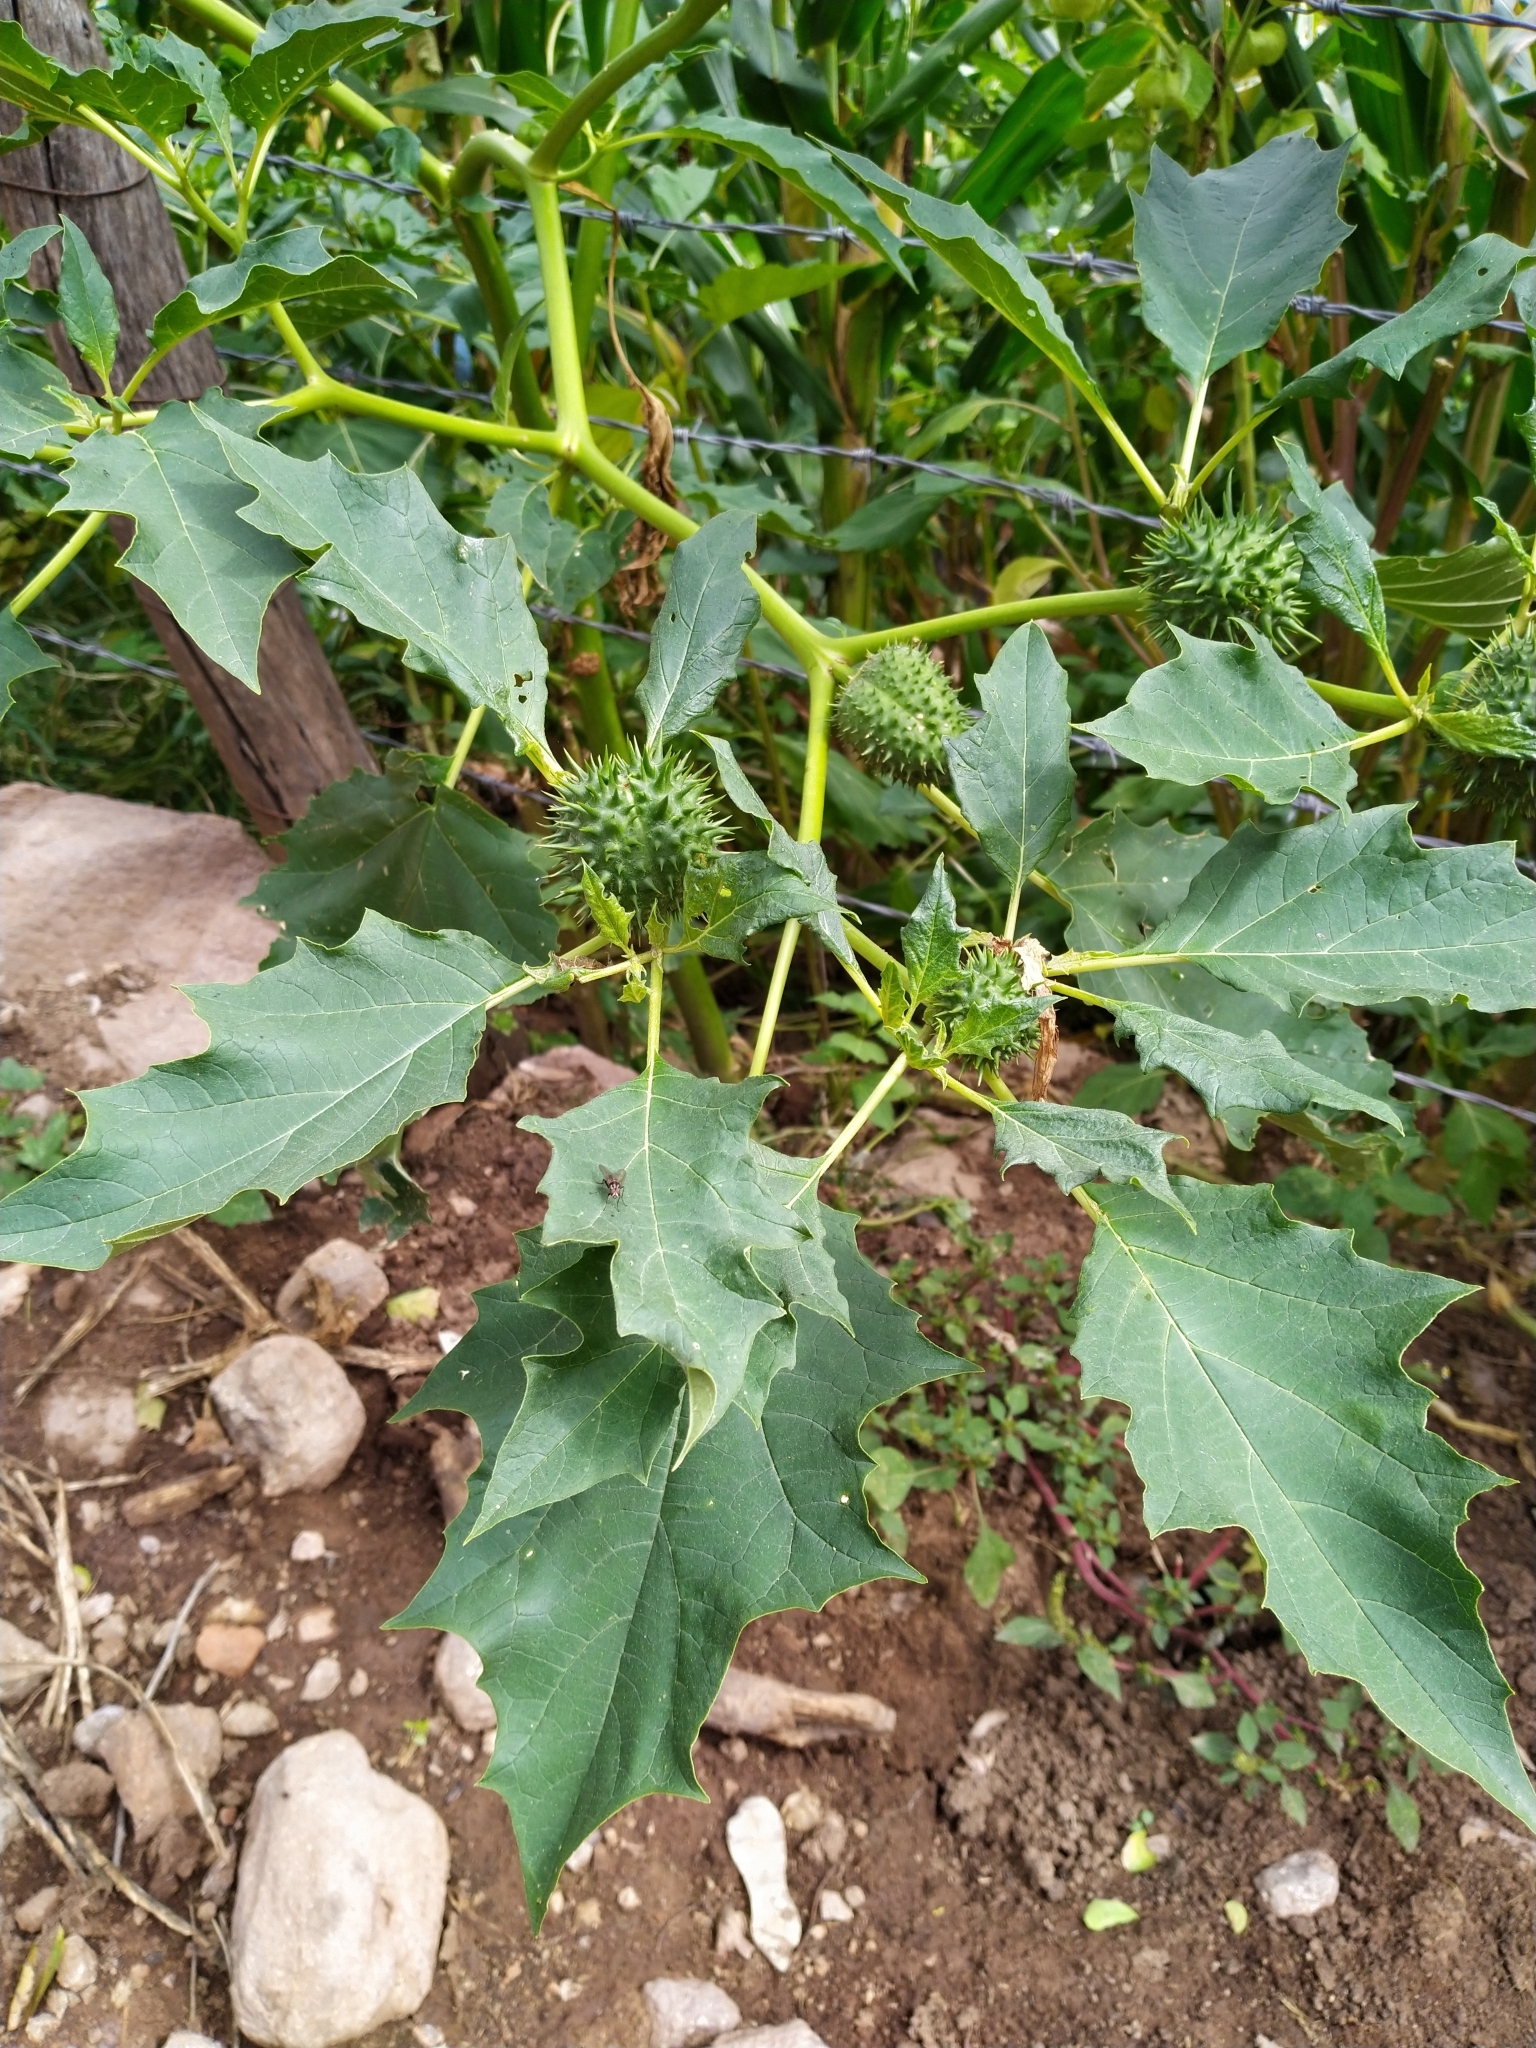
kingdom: Plantae
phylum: Tracheophyta
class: Magnoliopsida
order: Solanales
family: Solanaceae
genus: Datura
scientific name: Datura stramonium
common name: Thorn-apple
